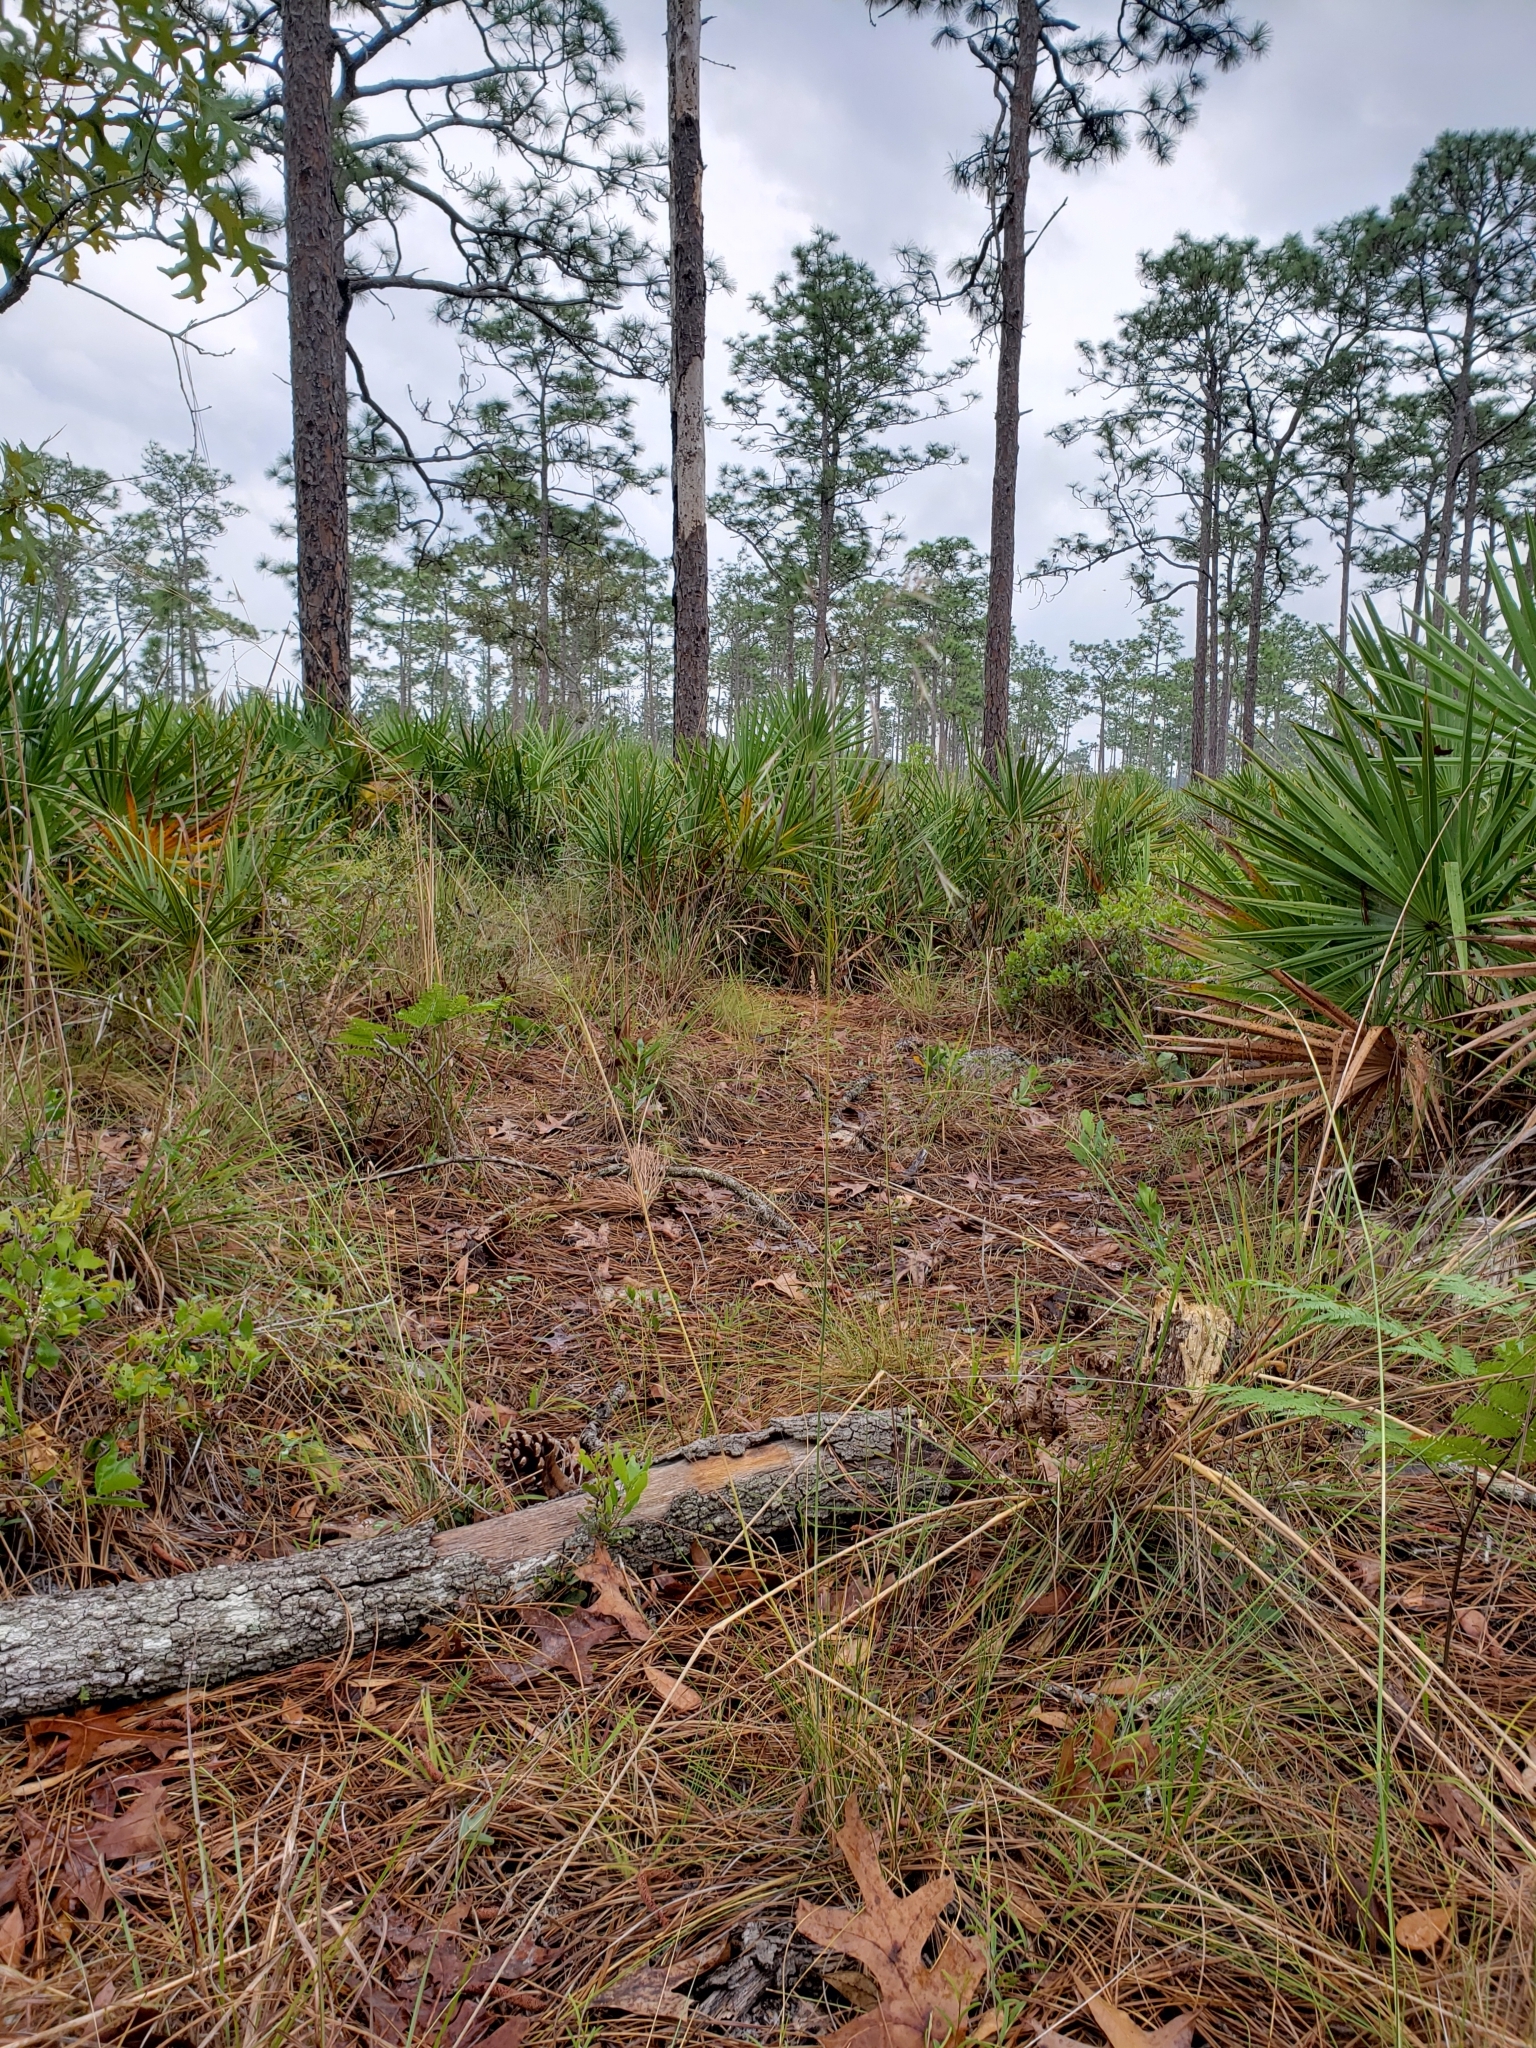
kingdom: Plantae
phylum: Tracheophyta
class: Liliopsida
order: Poales
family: Poaceae
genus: Piptochaetium
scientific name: Piptochaetium avenacioides
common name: Florida needlegrass
